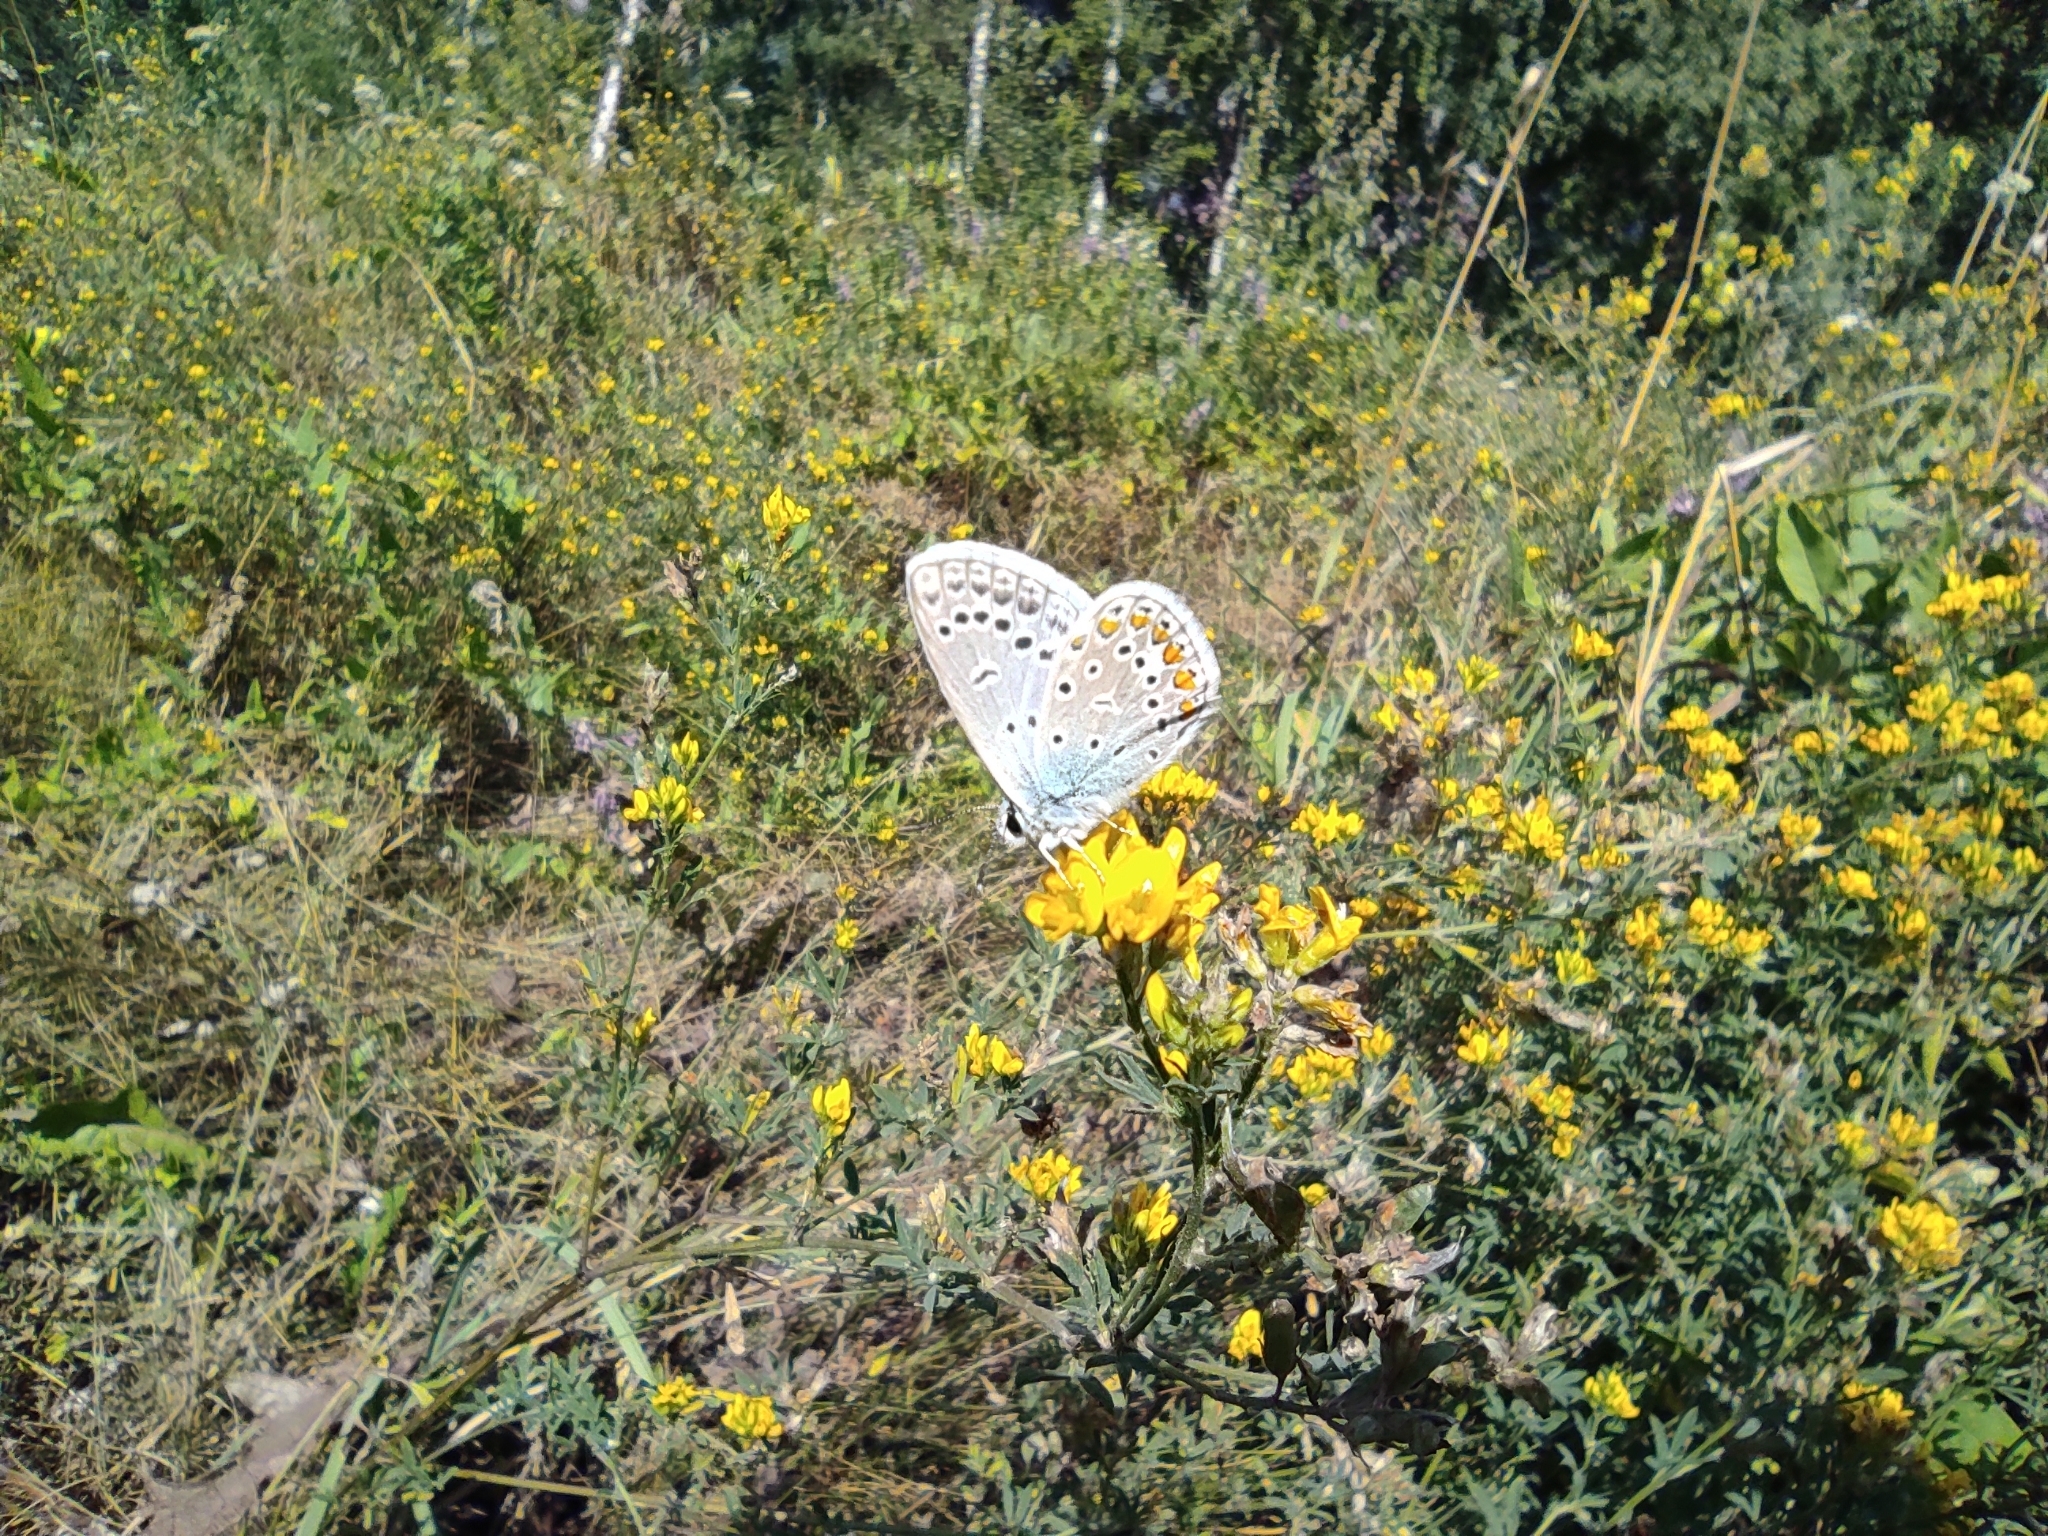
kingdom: Animalia
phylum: Arthropoda
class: Insecta
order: Lepidoptera
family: Lycaenidae
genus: Polyommatus
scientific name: Polyommatus icarus
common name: Common blue
